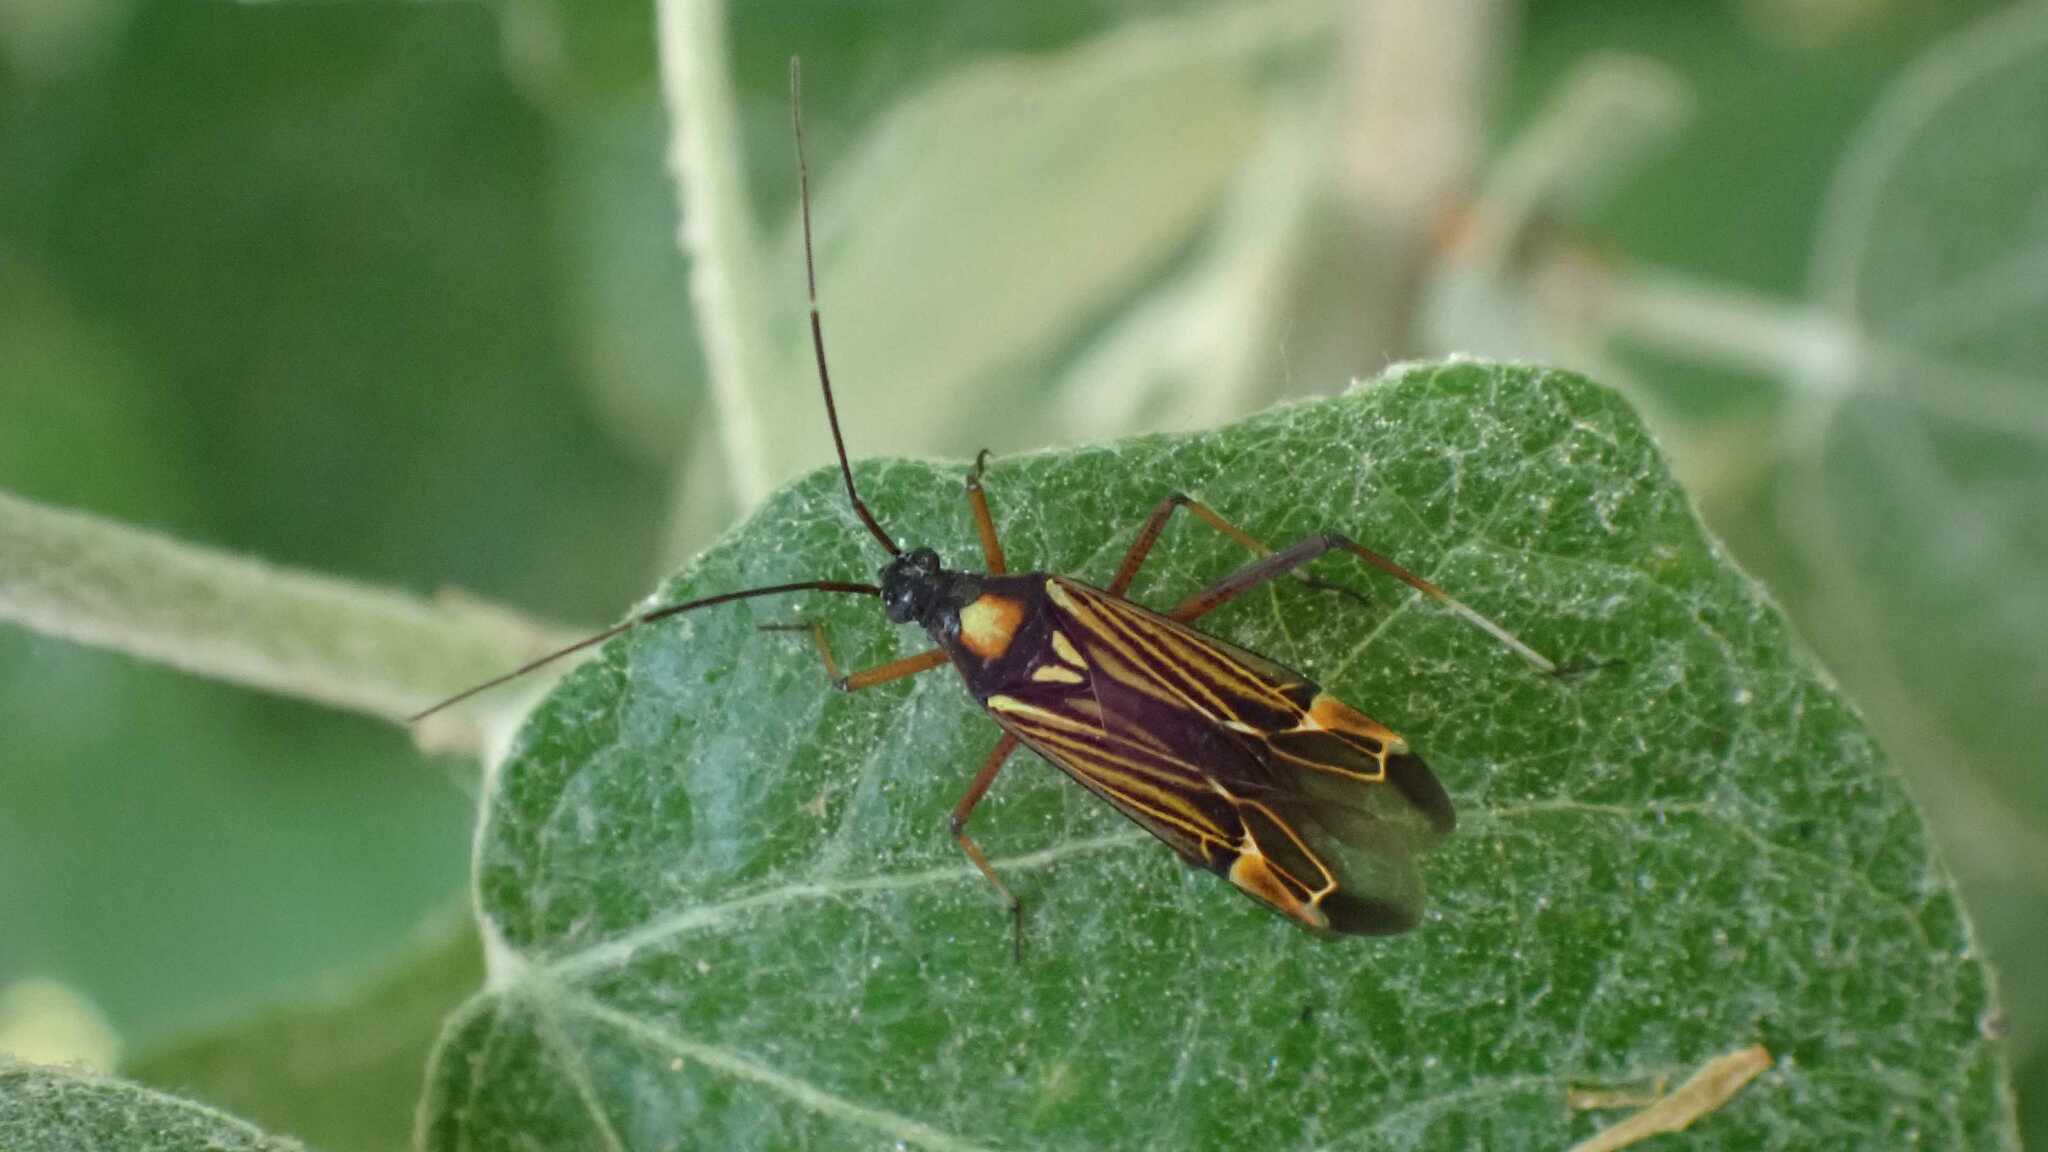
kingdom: Animalia
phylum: Arthropoda
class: Insecta
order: Hemiptera
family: Miridae
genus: Miris
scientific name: Miris striatus
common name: Fine streaked bugkin
